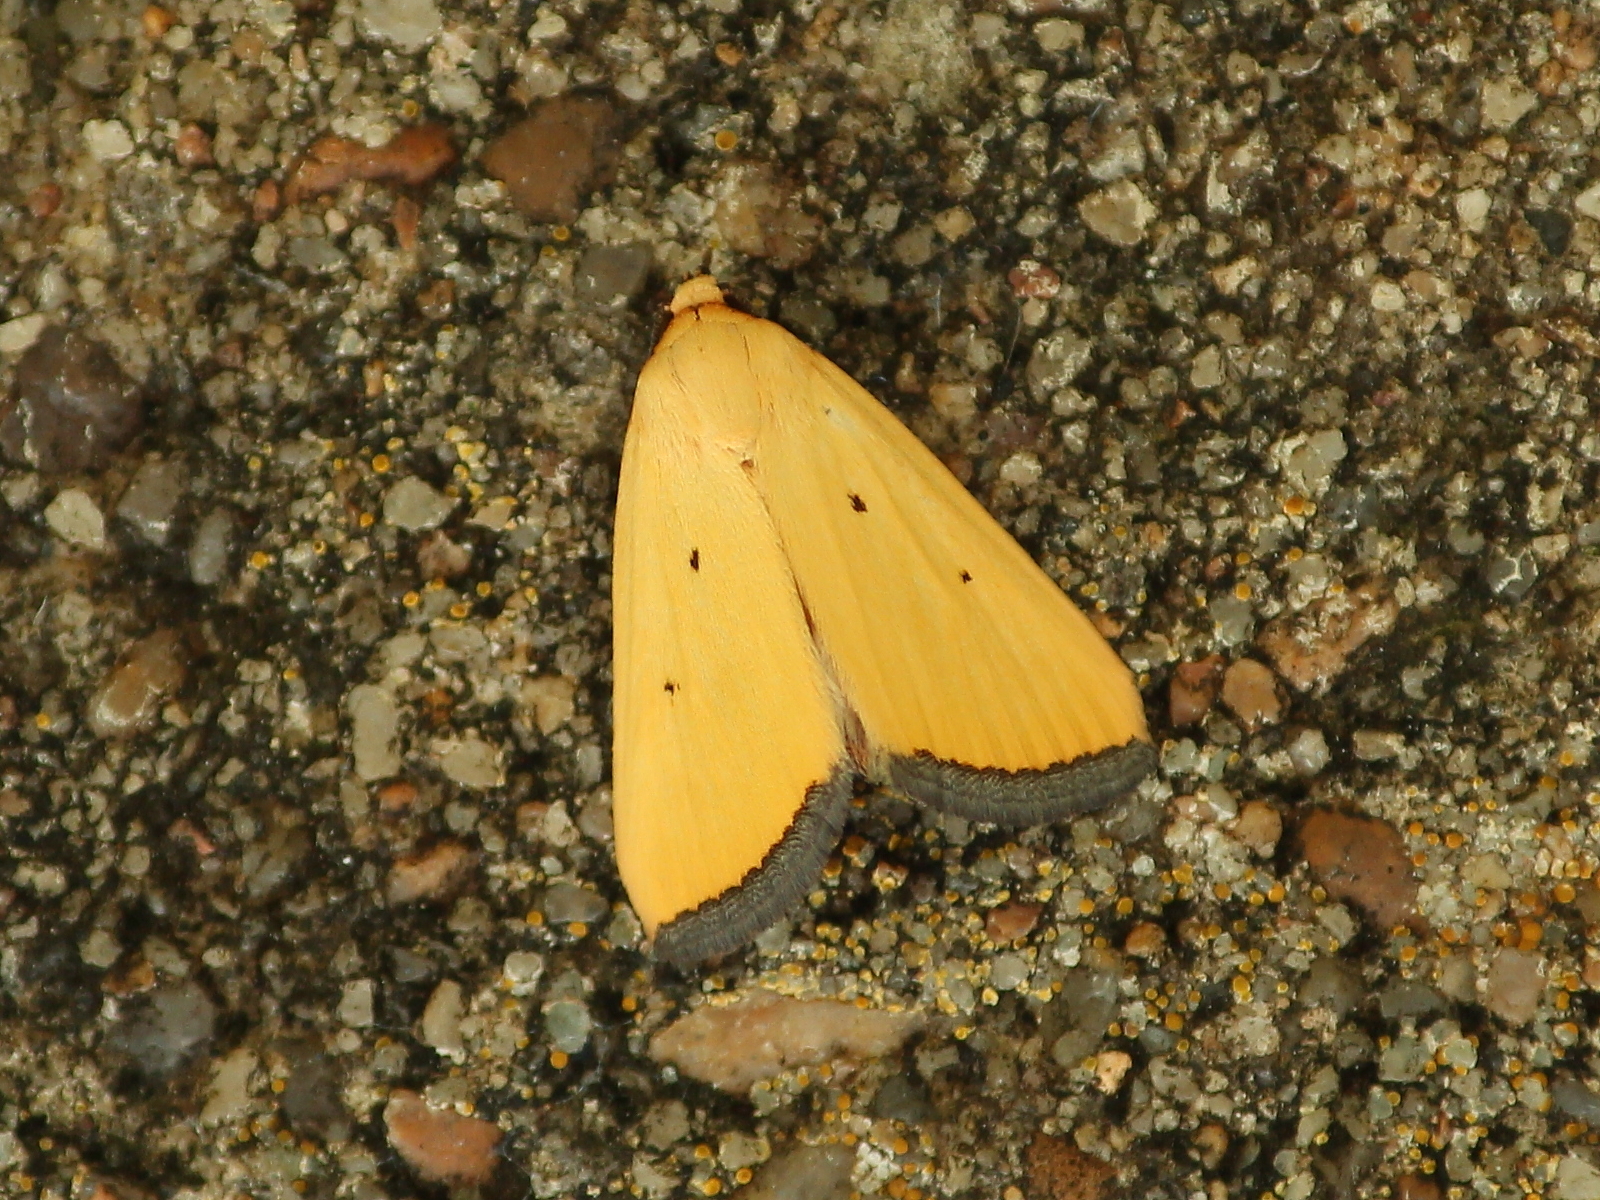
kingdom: Animalia
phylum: Arthropoda
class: Insecta
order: Lepidoptera
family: Noctuidae
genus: Marimatha
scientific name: Marimatha nigrofimbria
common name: Black-bordered lemon moth
